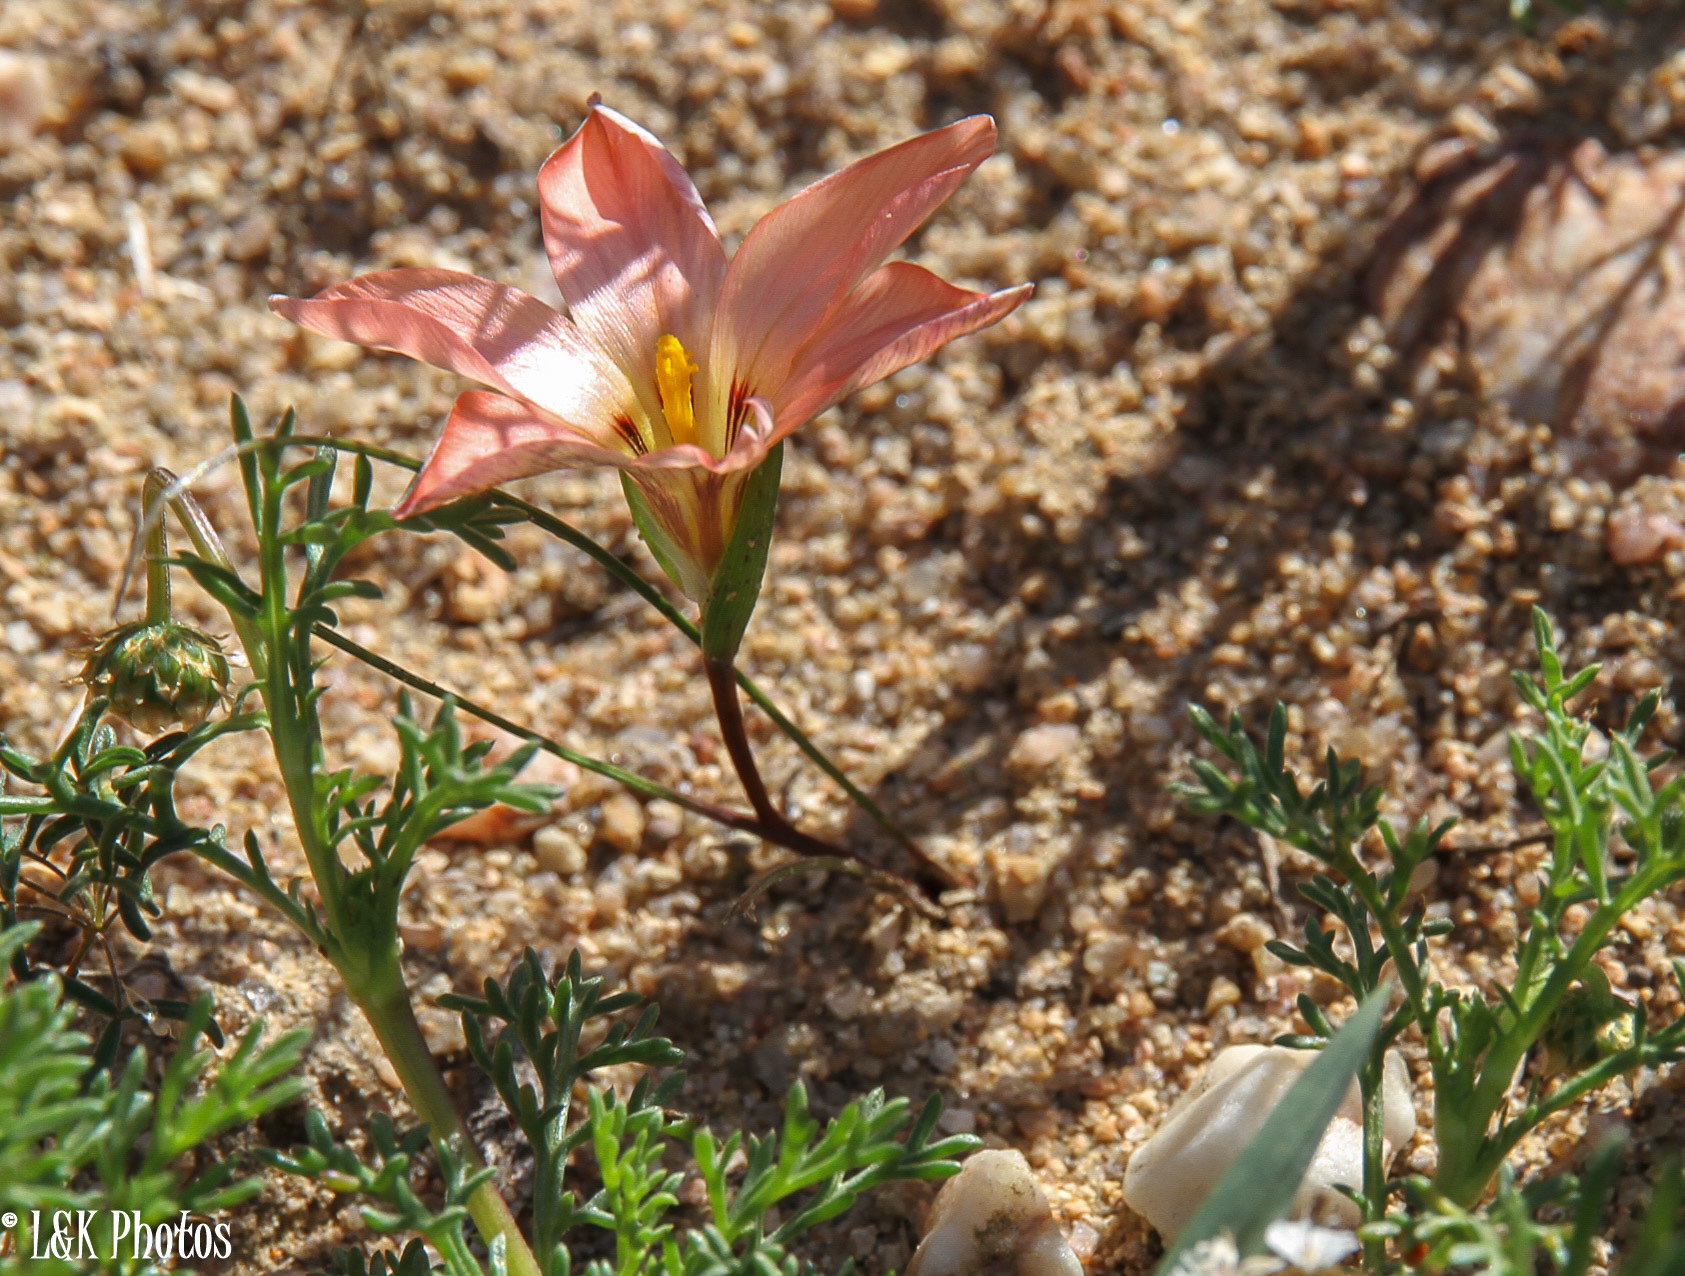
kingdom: Plantae
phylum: Tracheophyta
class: Liliopsida
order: Asparagales
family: Iridaceae
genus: Romulea
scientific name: Romulea namaquensis
